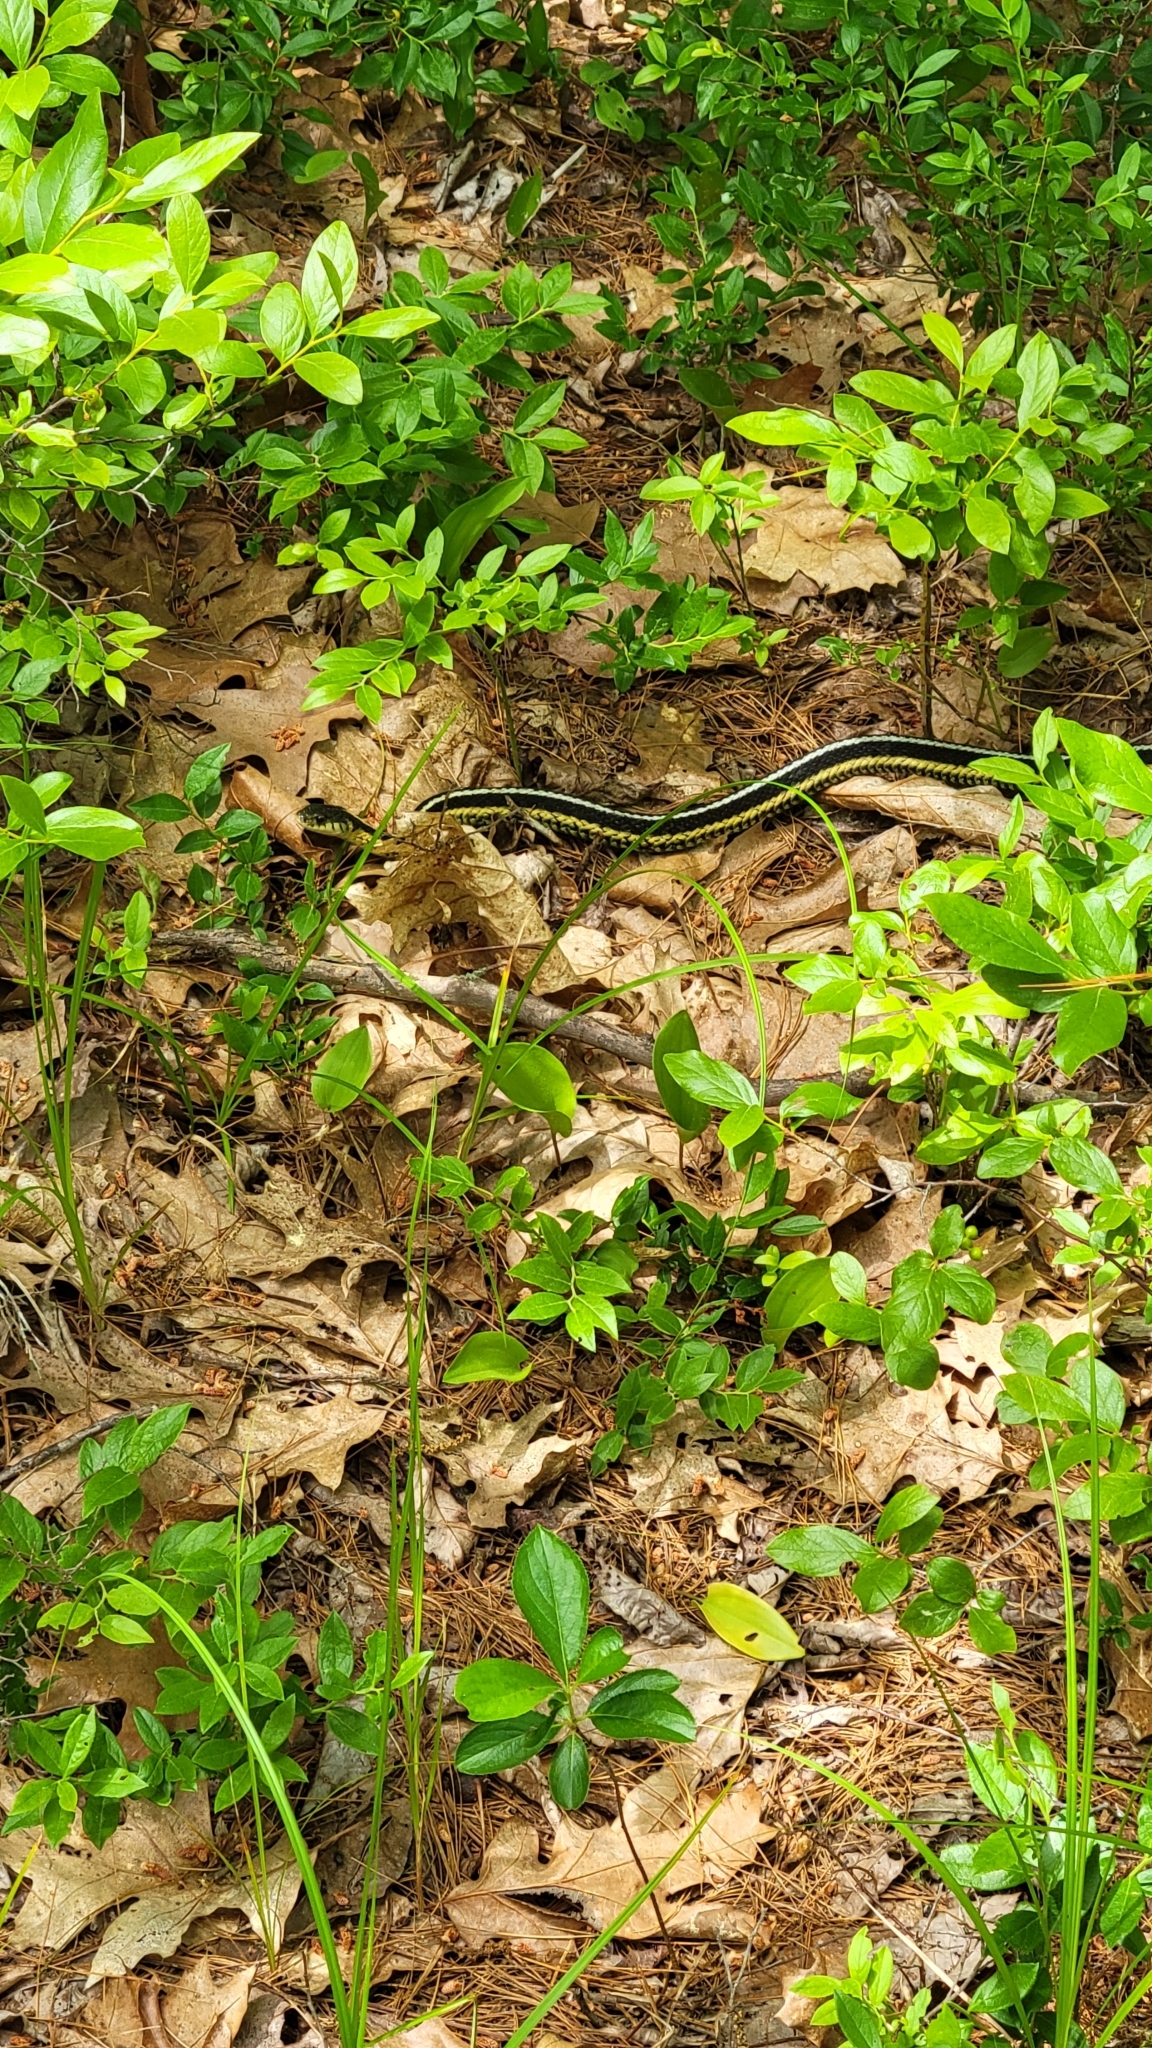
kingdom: Animalia
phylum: Chordata
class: Squamata
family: Colubridae
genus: Thamnophis
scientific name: Thamnophis sirtalis
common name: Common garter snake
